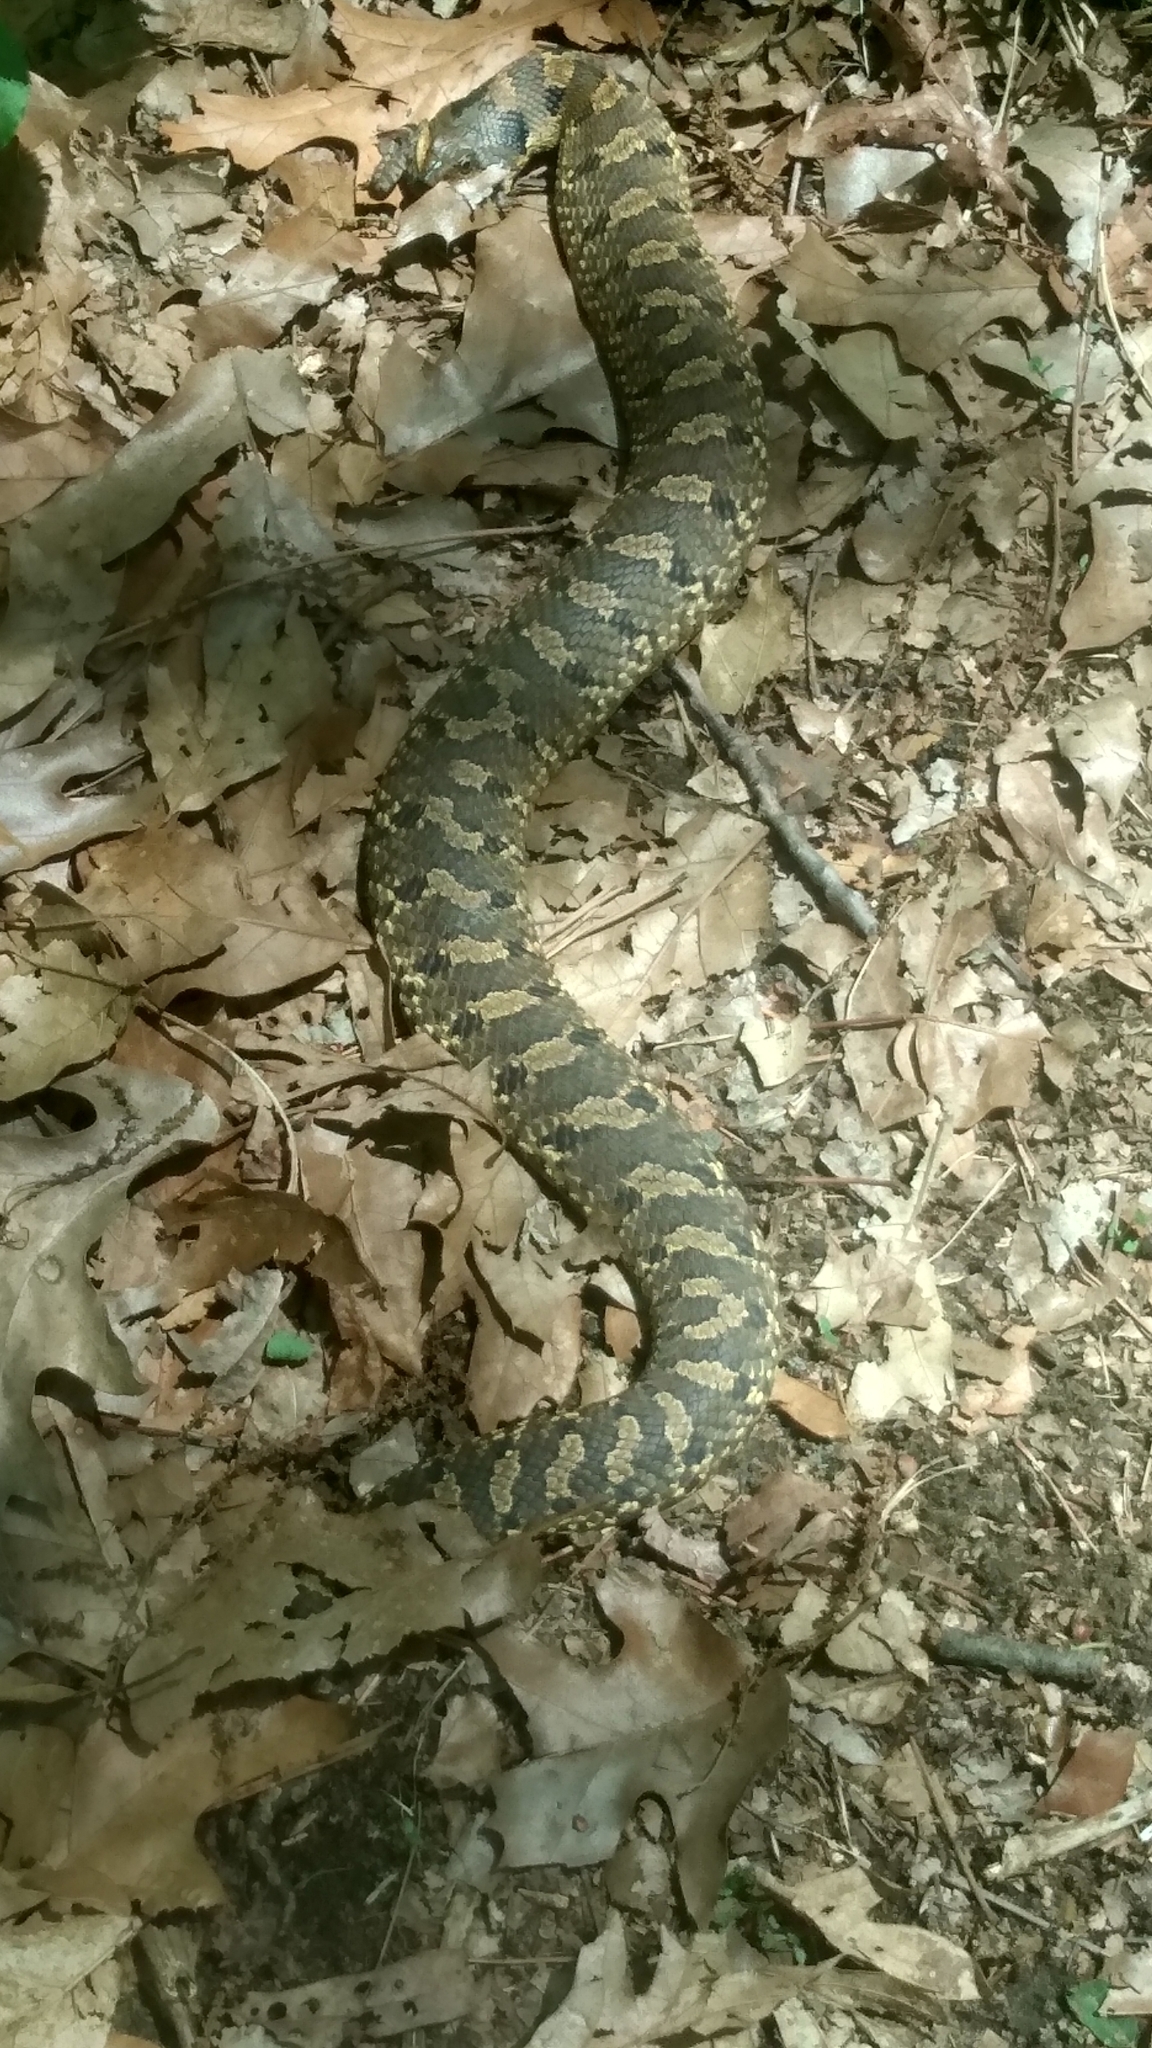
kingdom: Animalia
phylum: Chordata
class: Squamata
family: Colubridae
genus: Heterodon
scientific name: Heterodon platirhinos
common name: Eastern hognose snake
